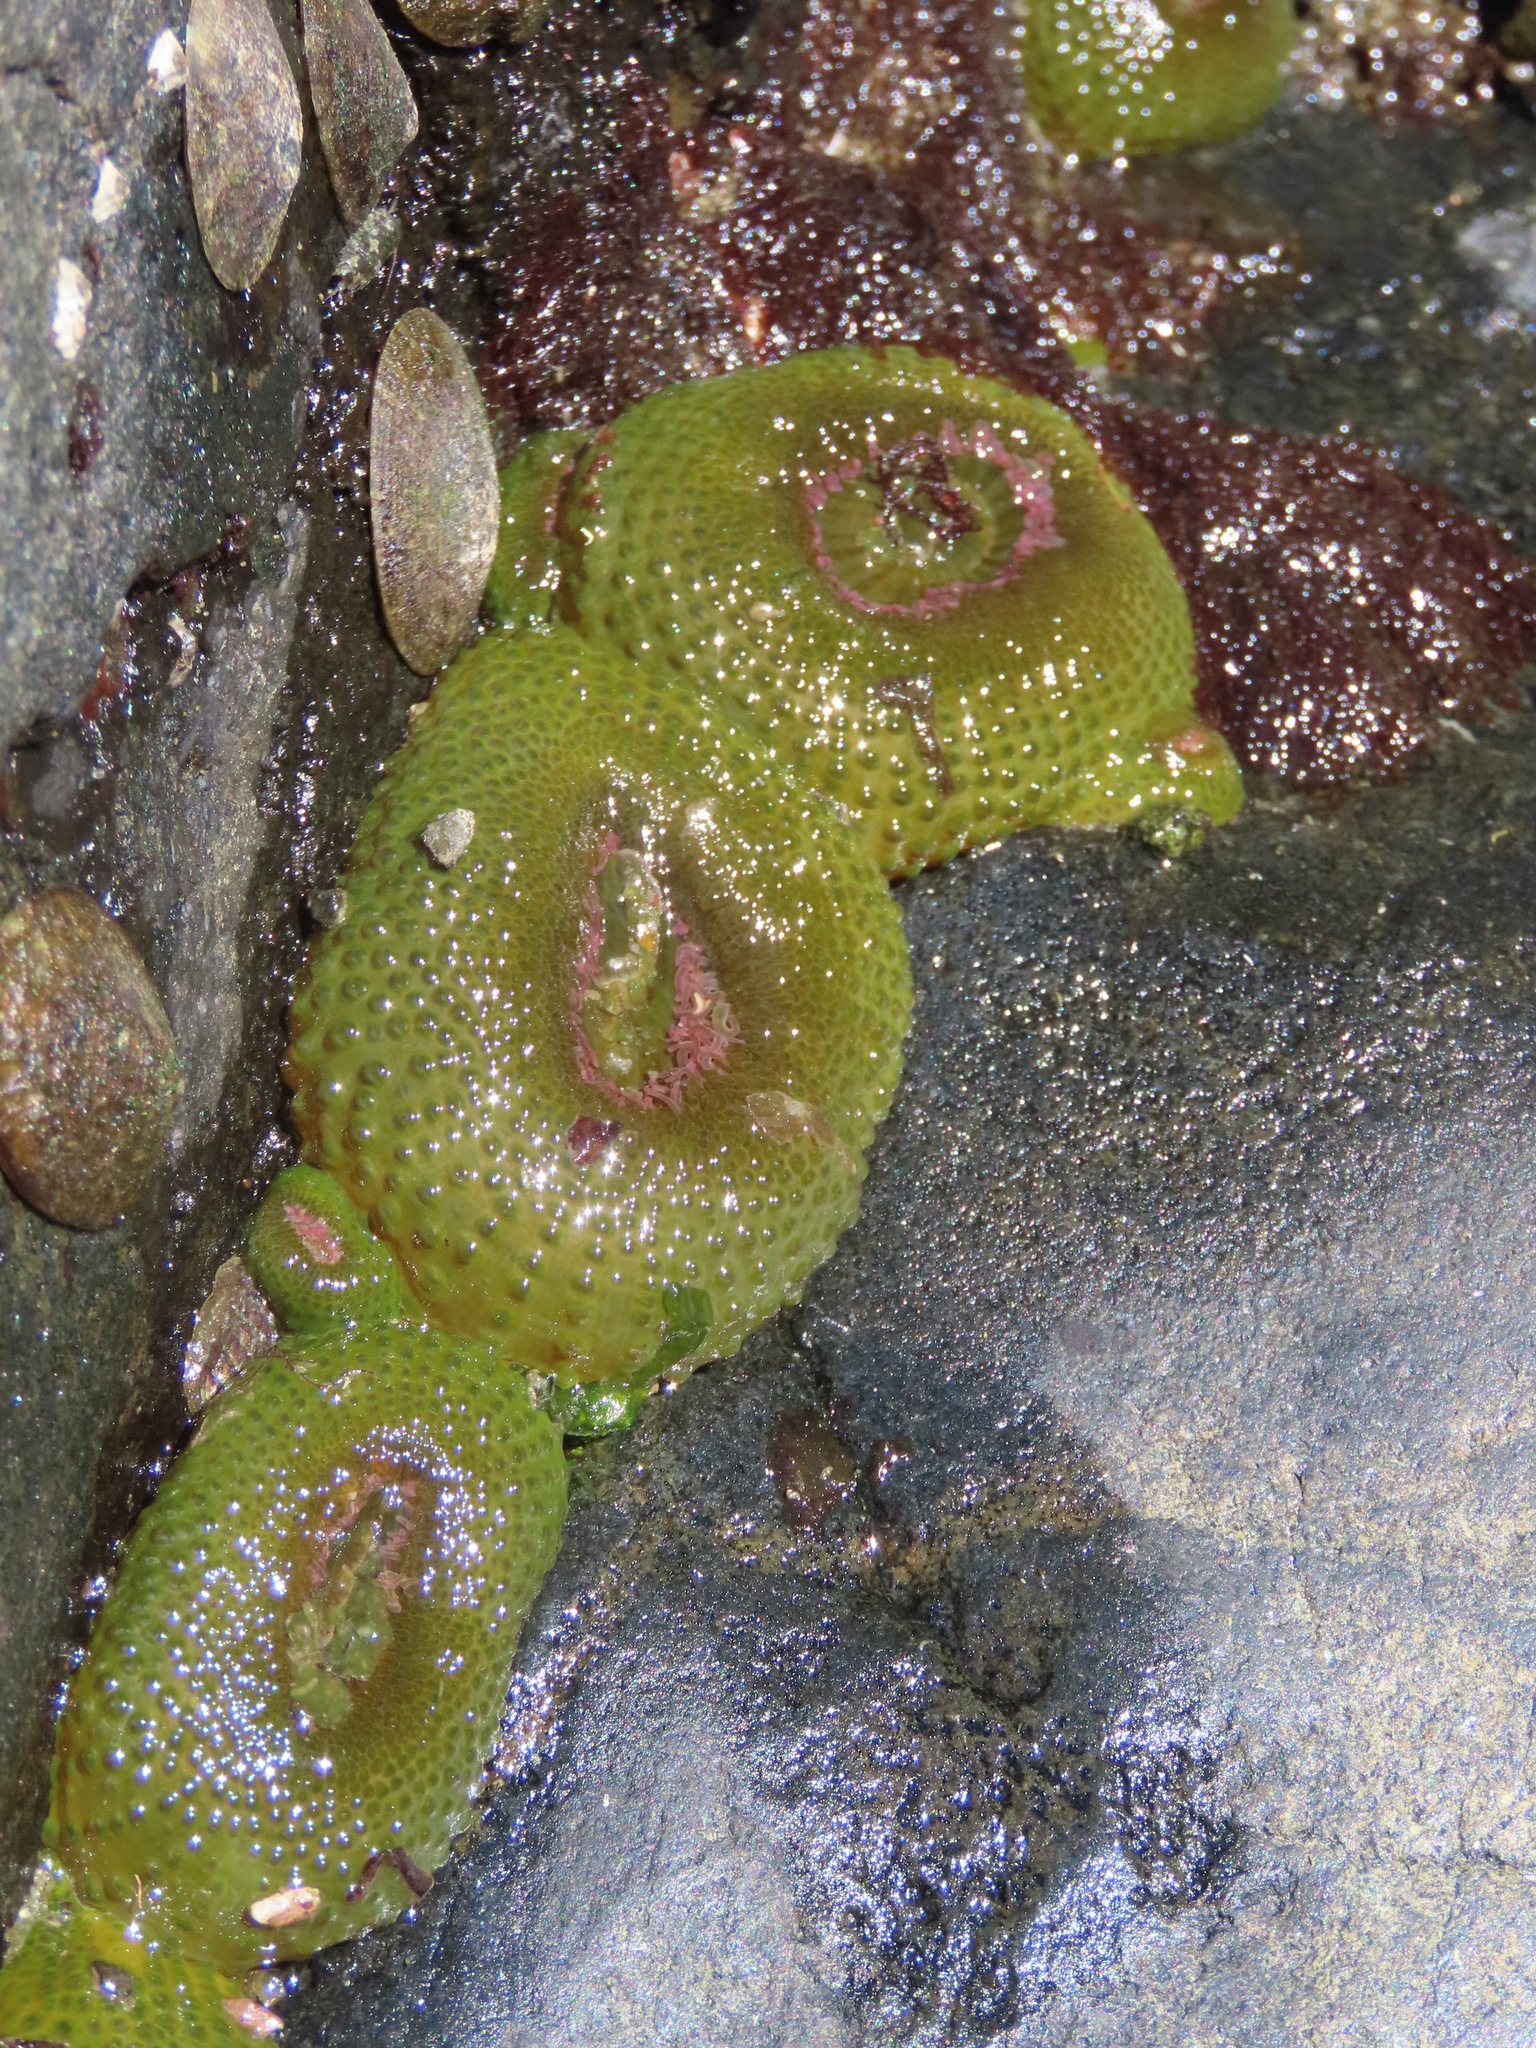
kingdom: Animalia
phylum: Cnidaria
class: Anthozoa
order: Actiniaria
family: Actiniidae
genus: Anthopleura
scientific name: Anthopleura elegantissima
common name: Clonal anemone
